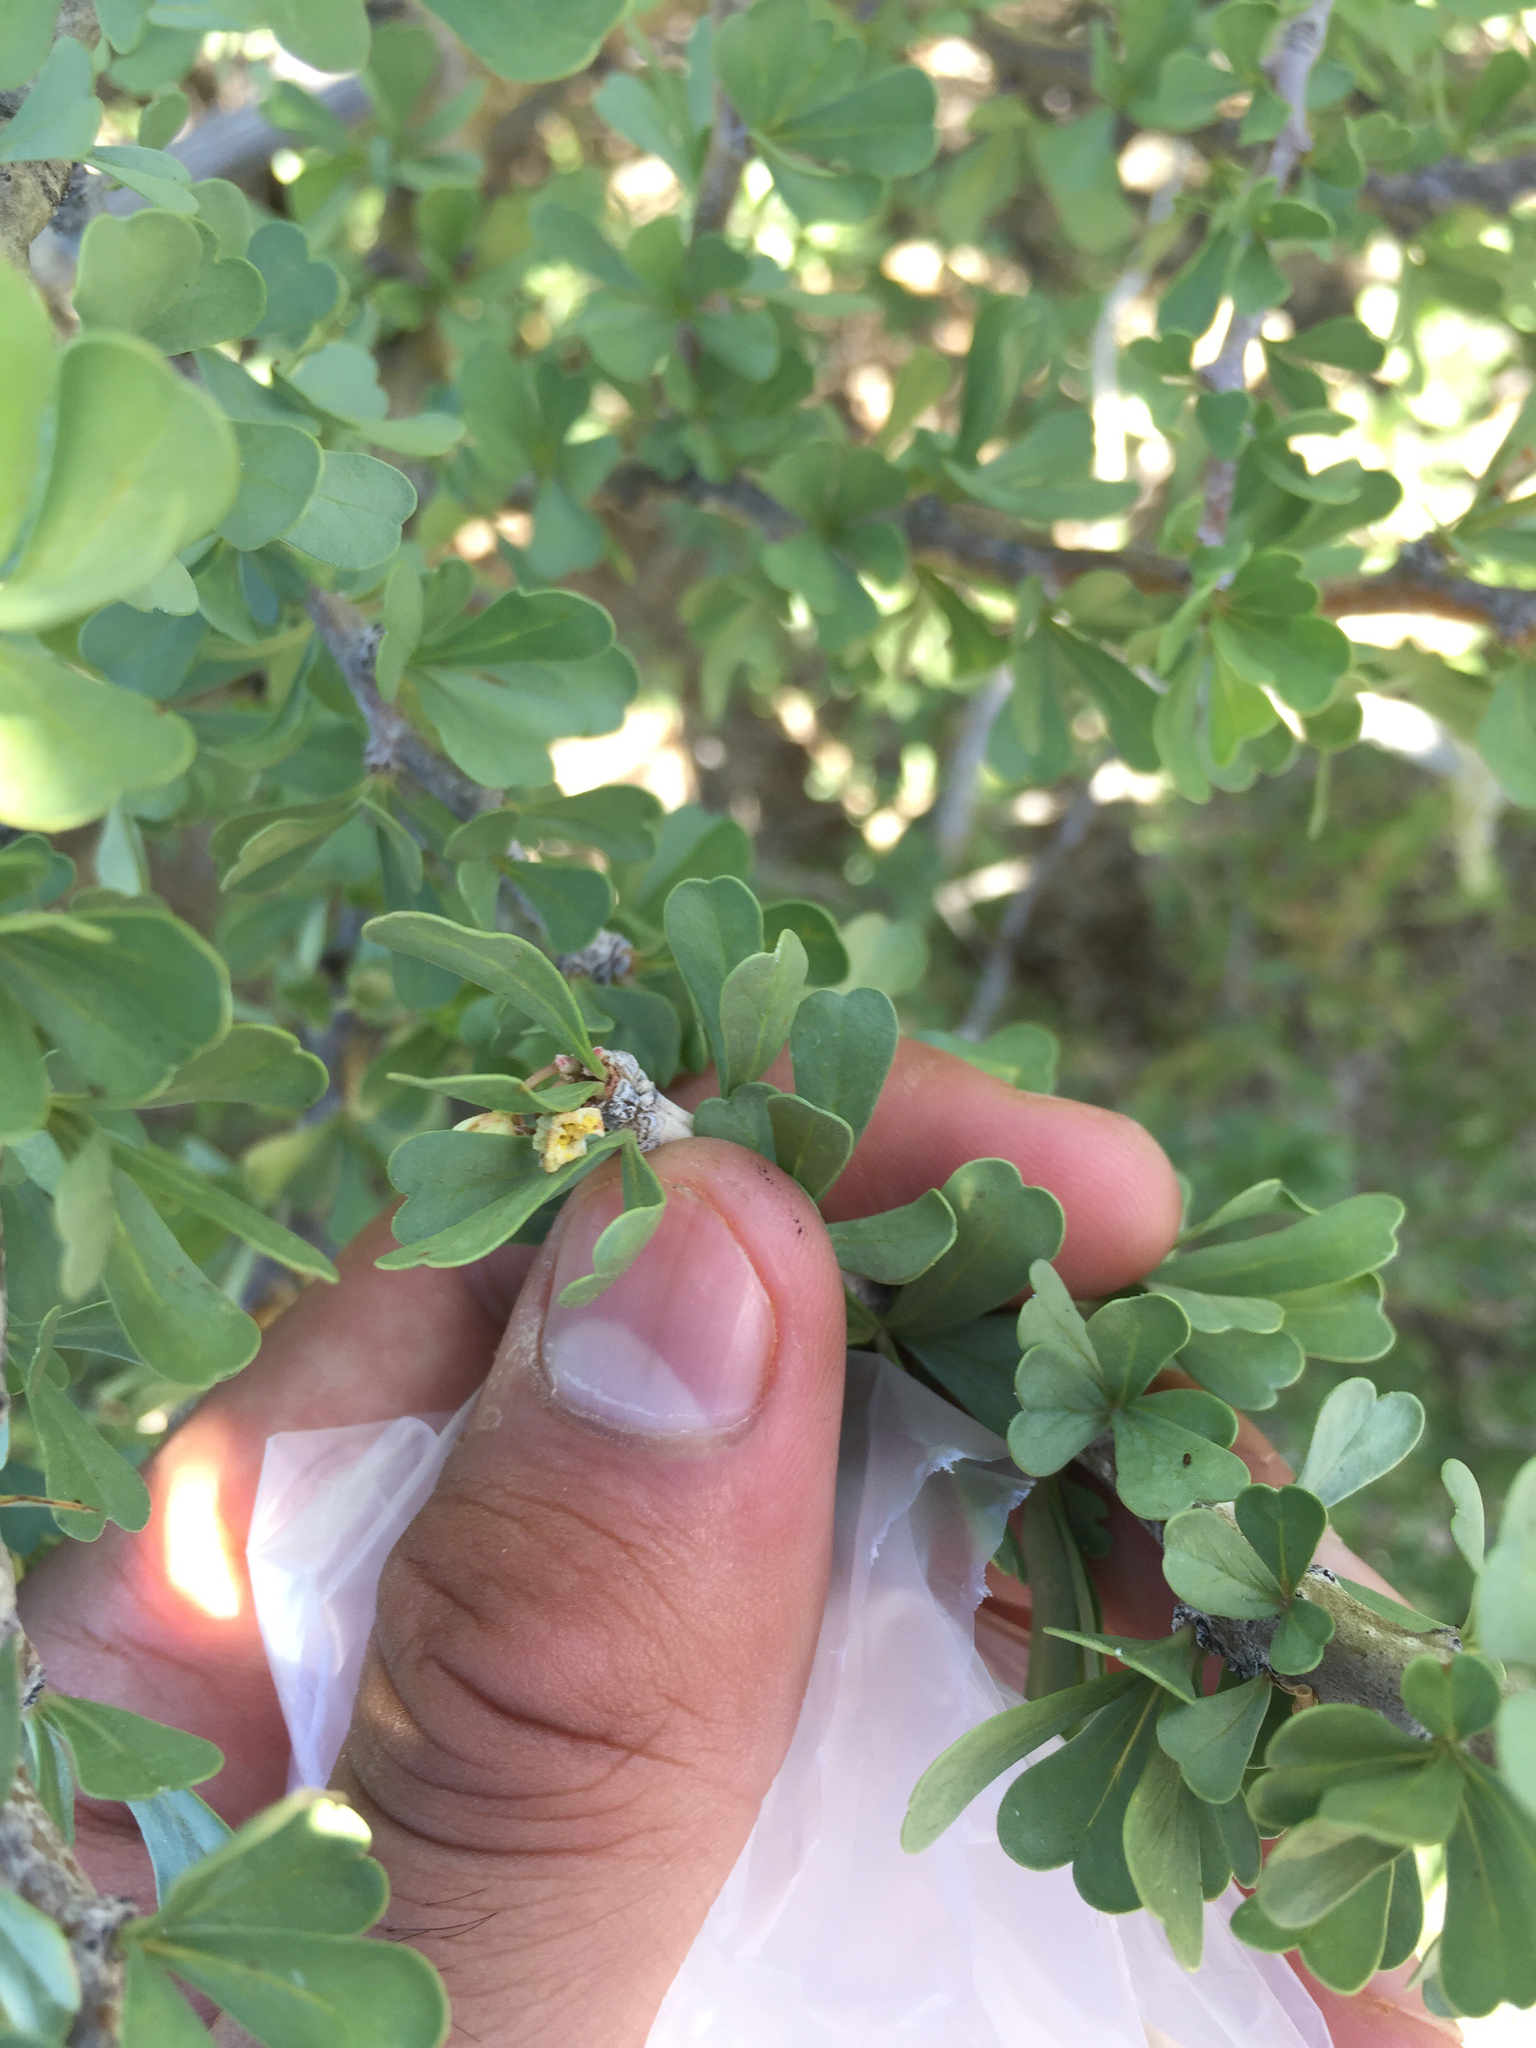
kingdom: Plantae
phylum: Tracheophyta
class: Magnoliopsida
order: Malpighiales
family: Euphorbiaceae
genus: Jatropha
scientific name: Jatropha cuneata
